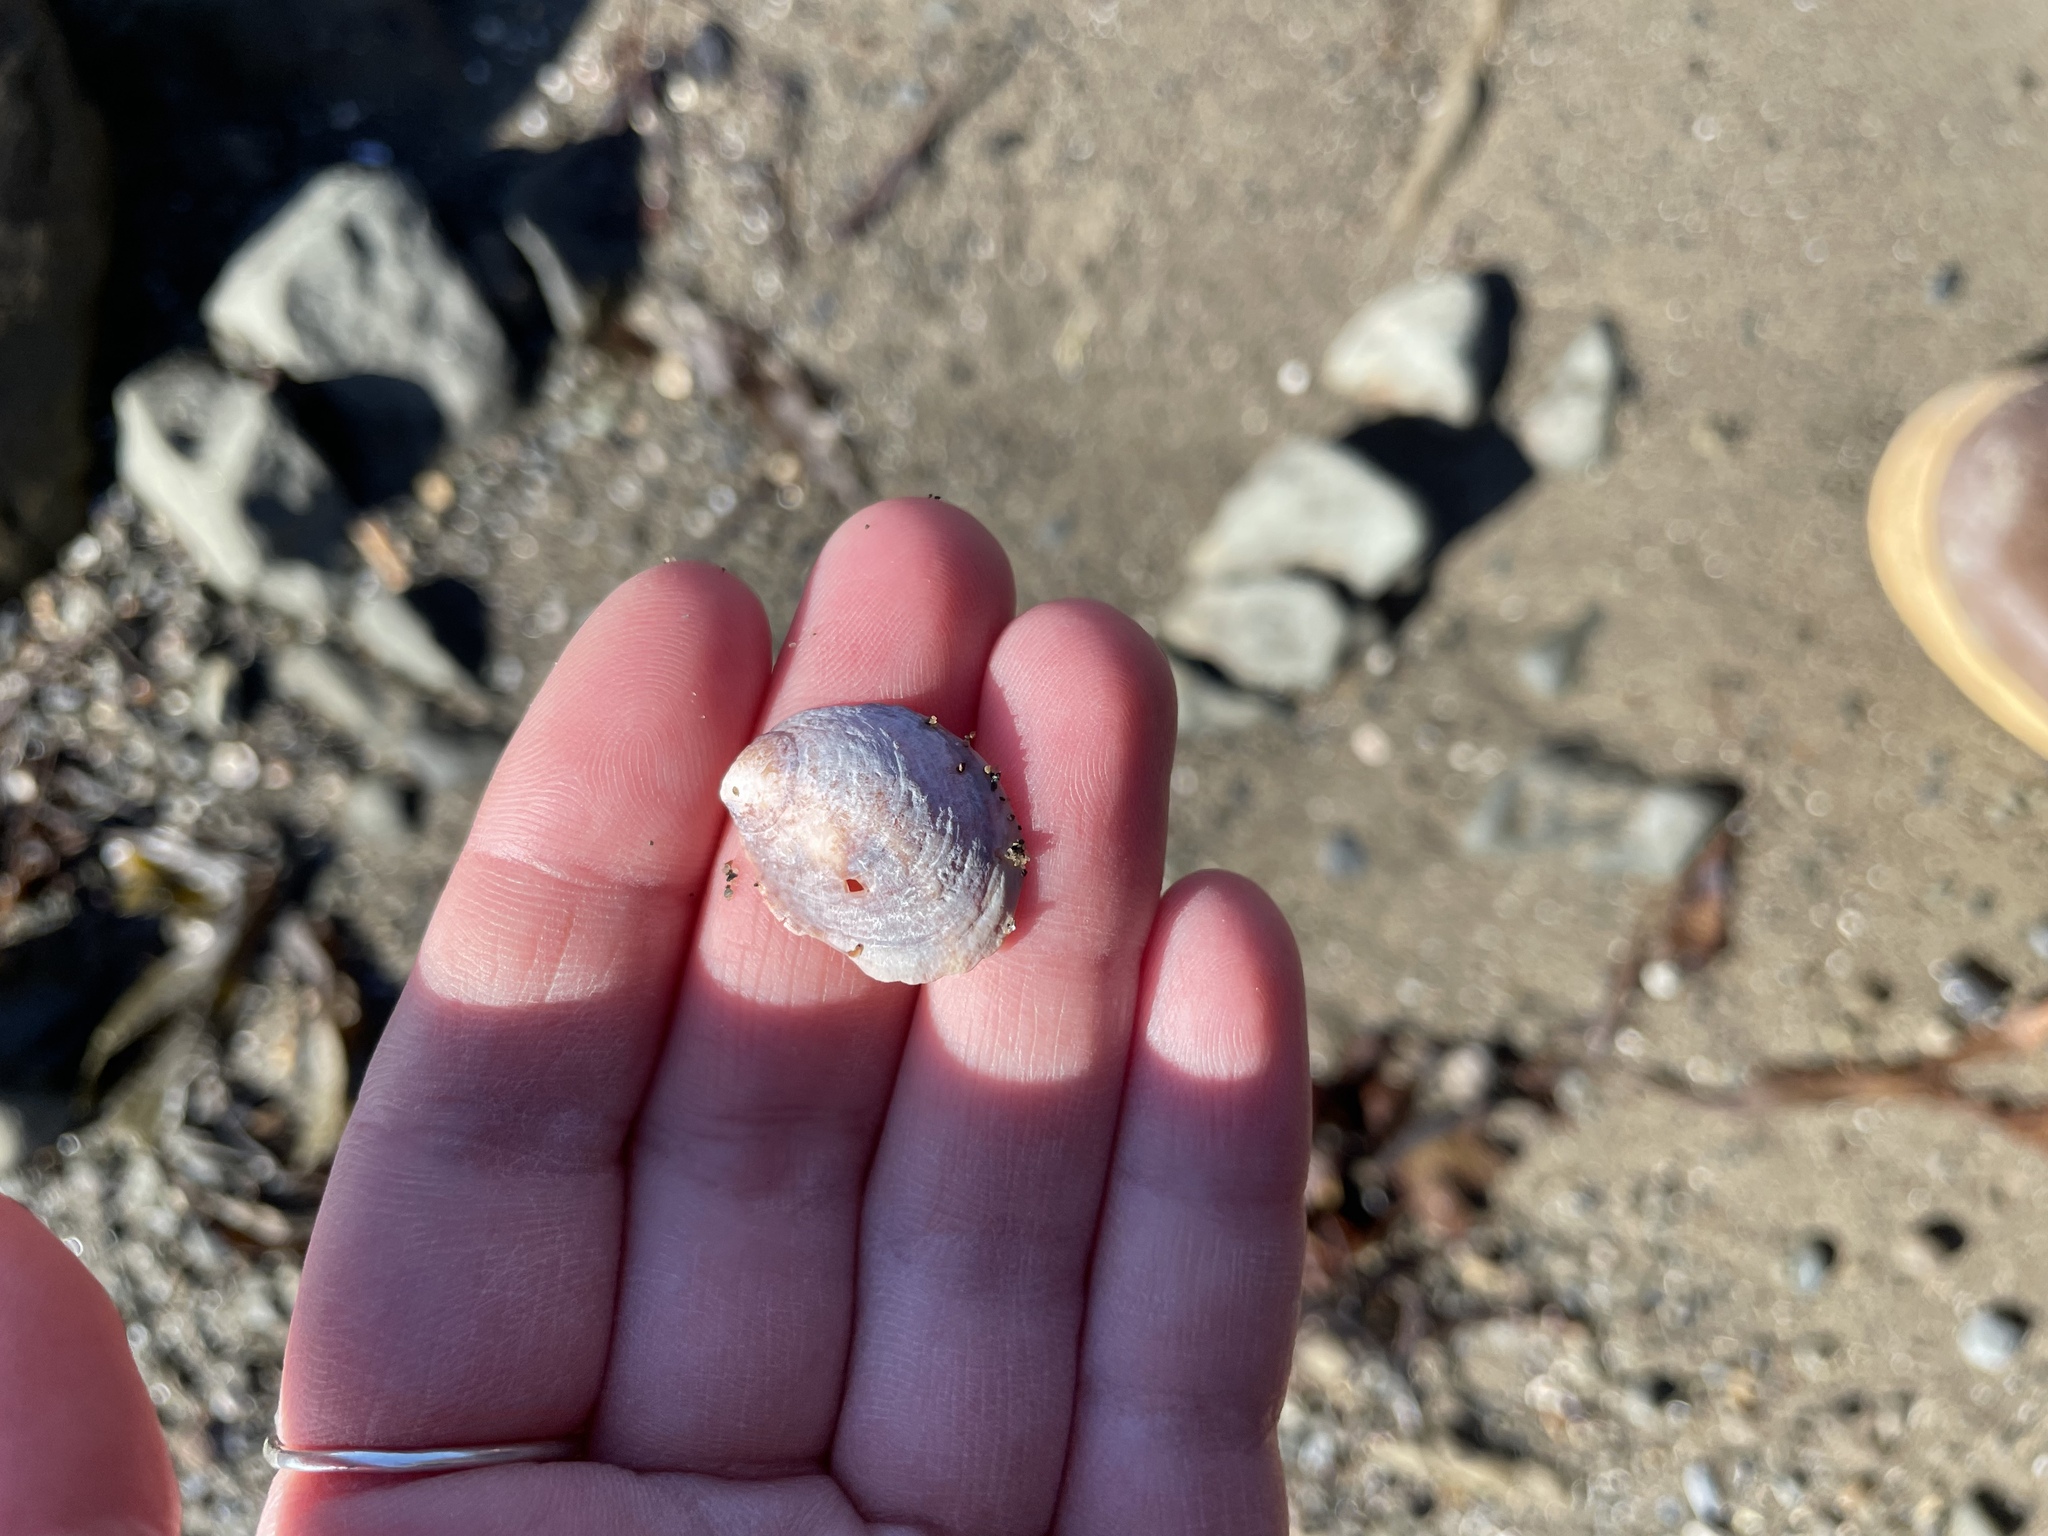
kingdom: Animalia
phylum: Mollusca
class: Gastropoda
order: Littorinimorpha
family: Calyptraeidae
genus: Crepidula
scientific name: Crepidula fornicata
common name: Slipper limpet
